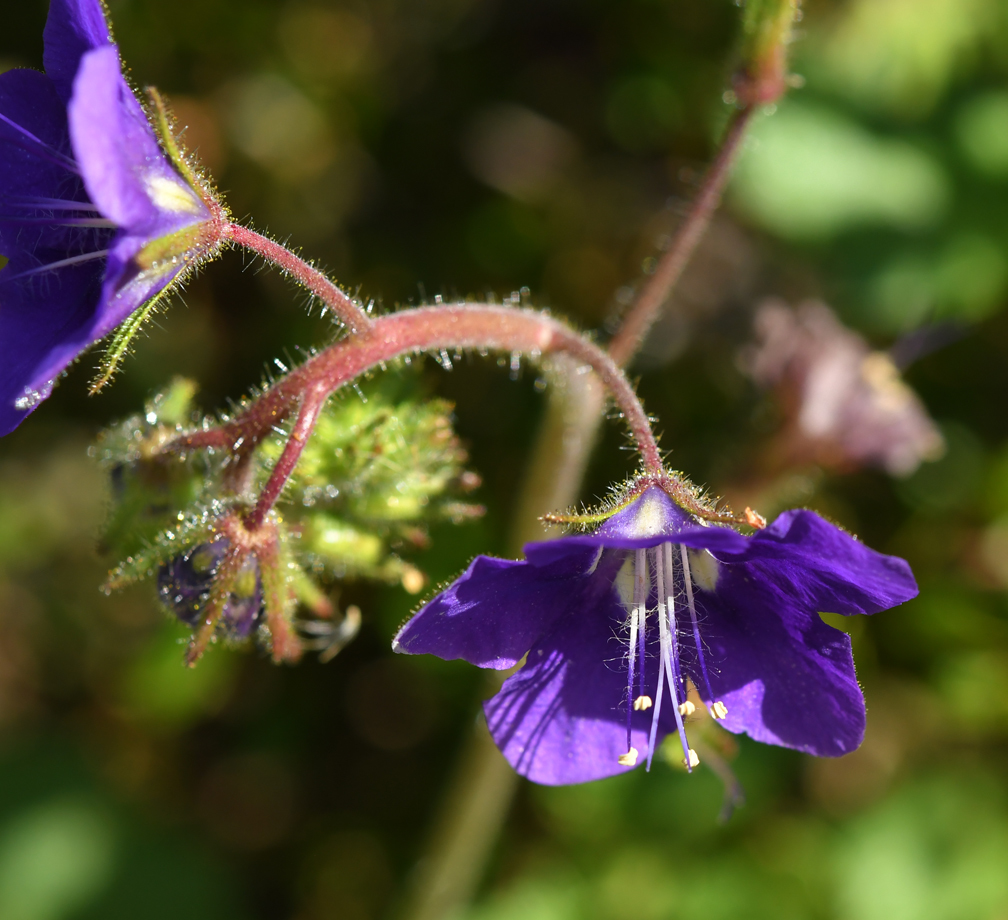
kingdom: Plantae
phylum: Tracheophyta
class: Magnoliopsida
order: Boraginales
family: Hydrophyllaceae
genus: Phacelia
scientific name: Phacelia parryi
